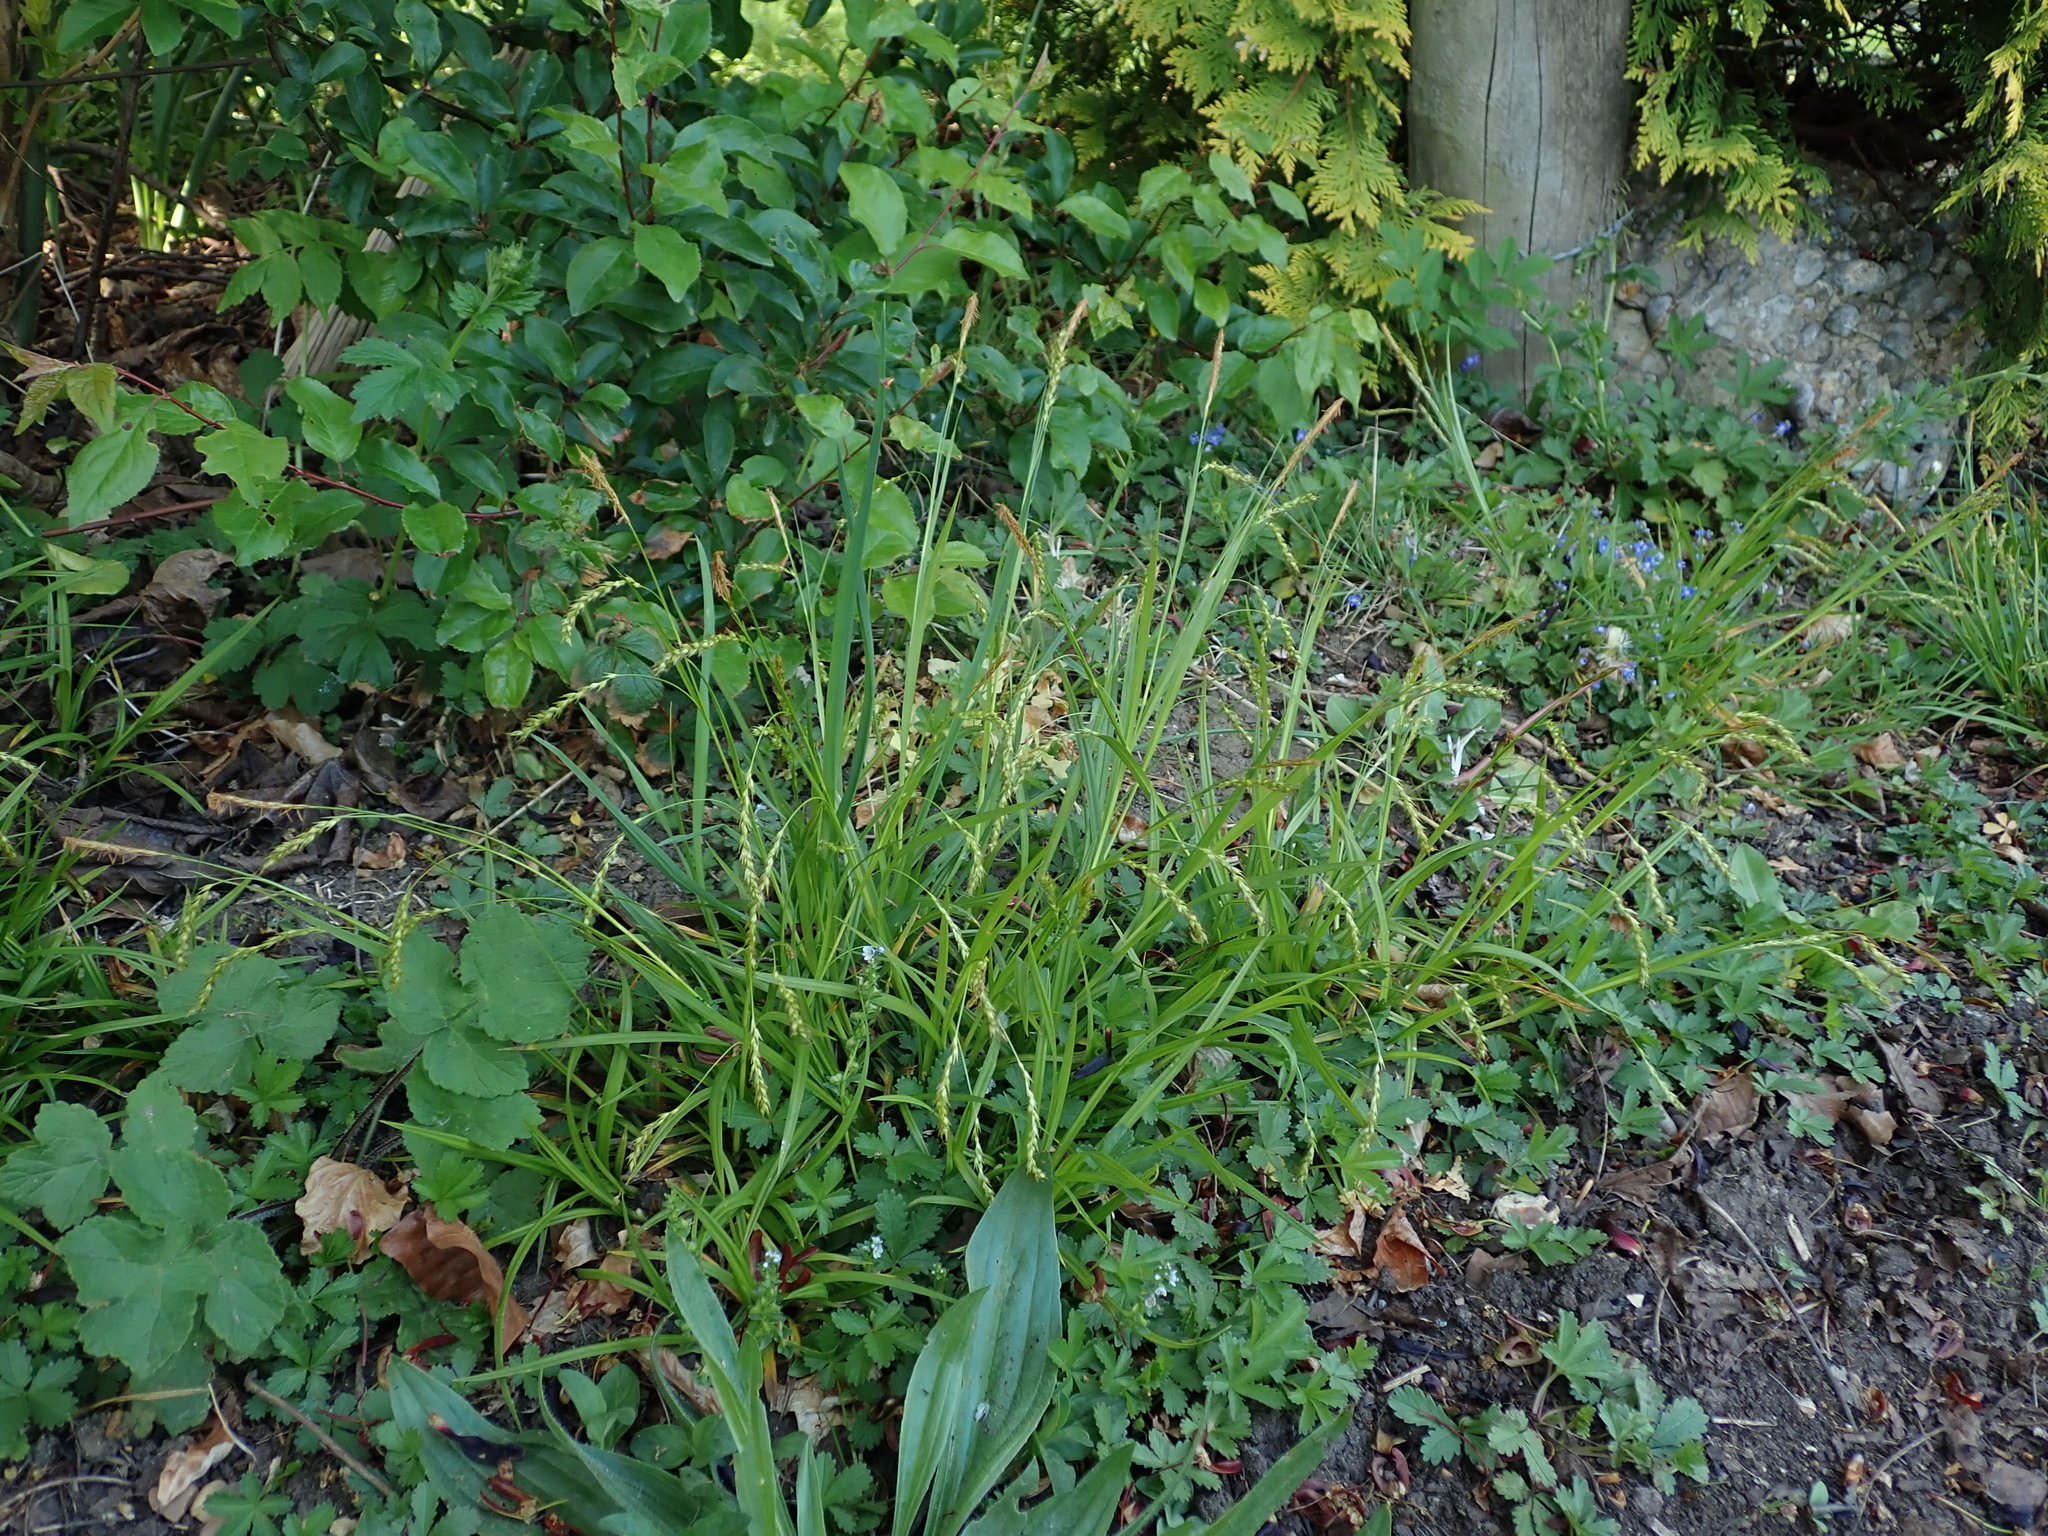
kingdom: Plantae
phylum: Tracheophyta
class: Liliopsida
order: Poales
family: Cyperaceae
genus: Carex
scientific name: Carex sylvatica
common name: Wood-sedge
